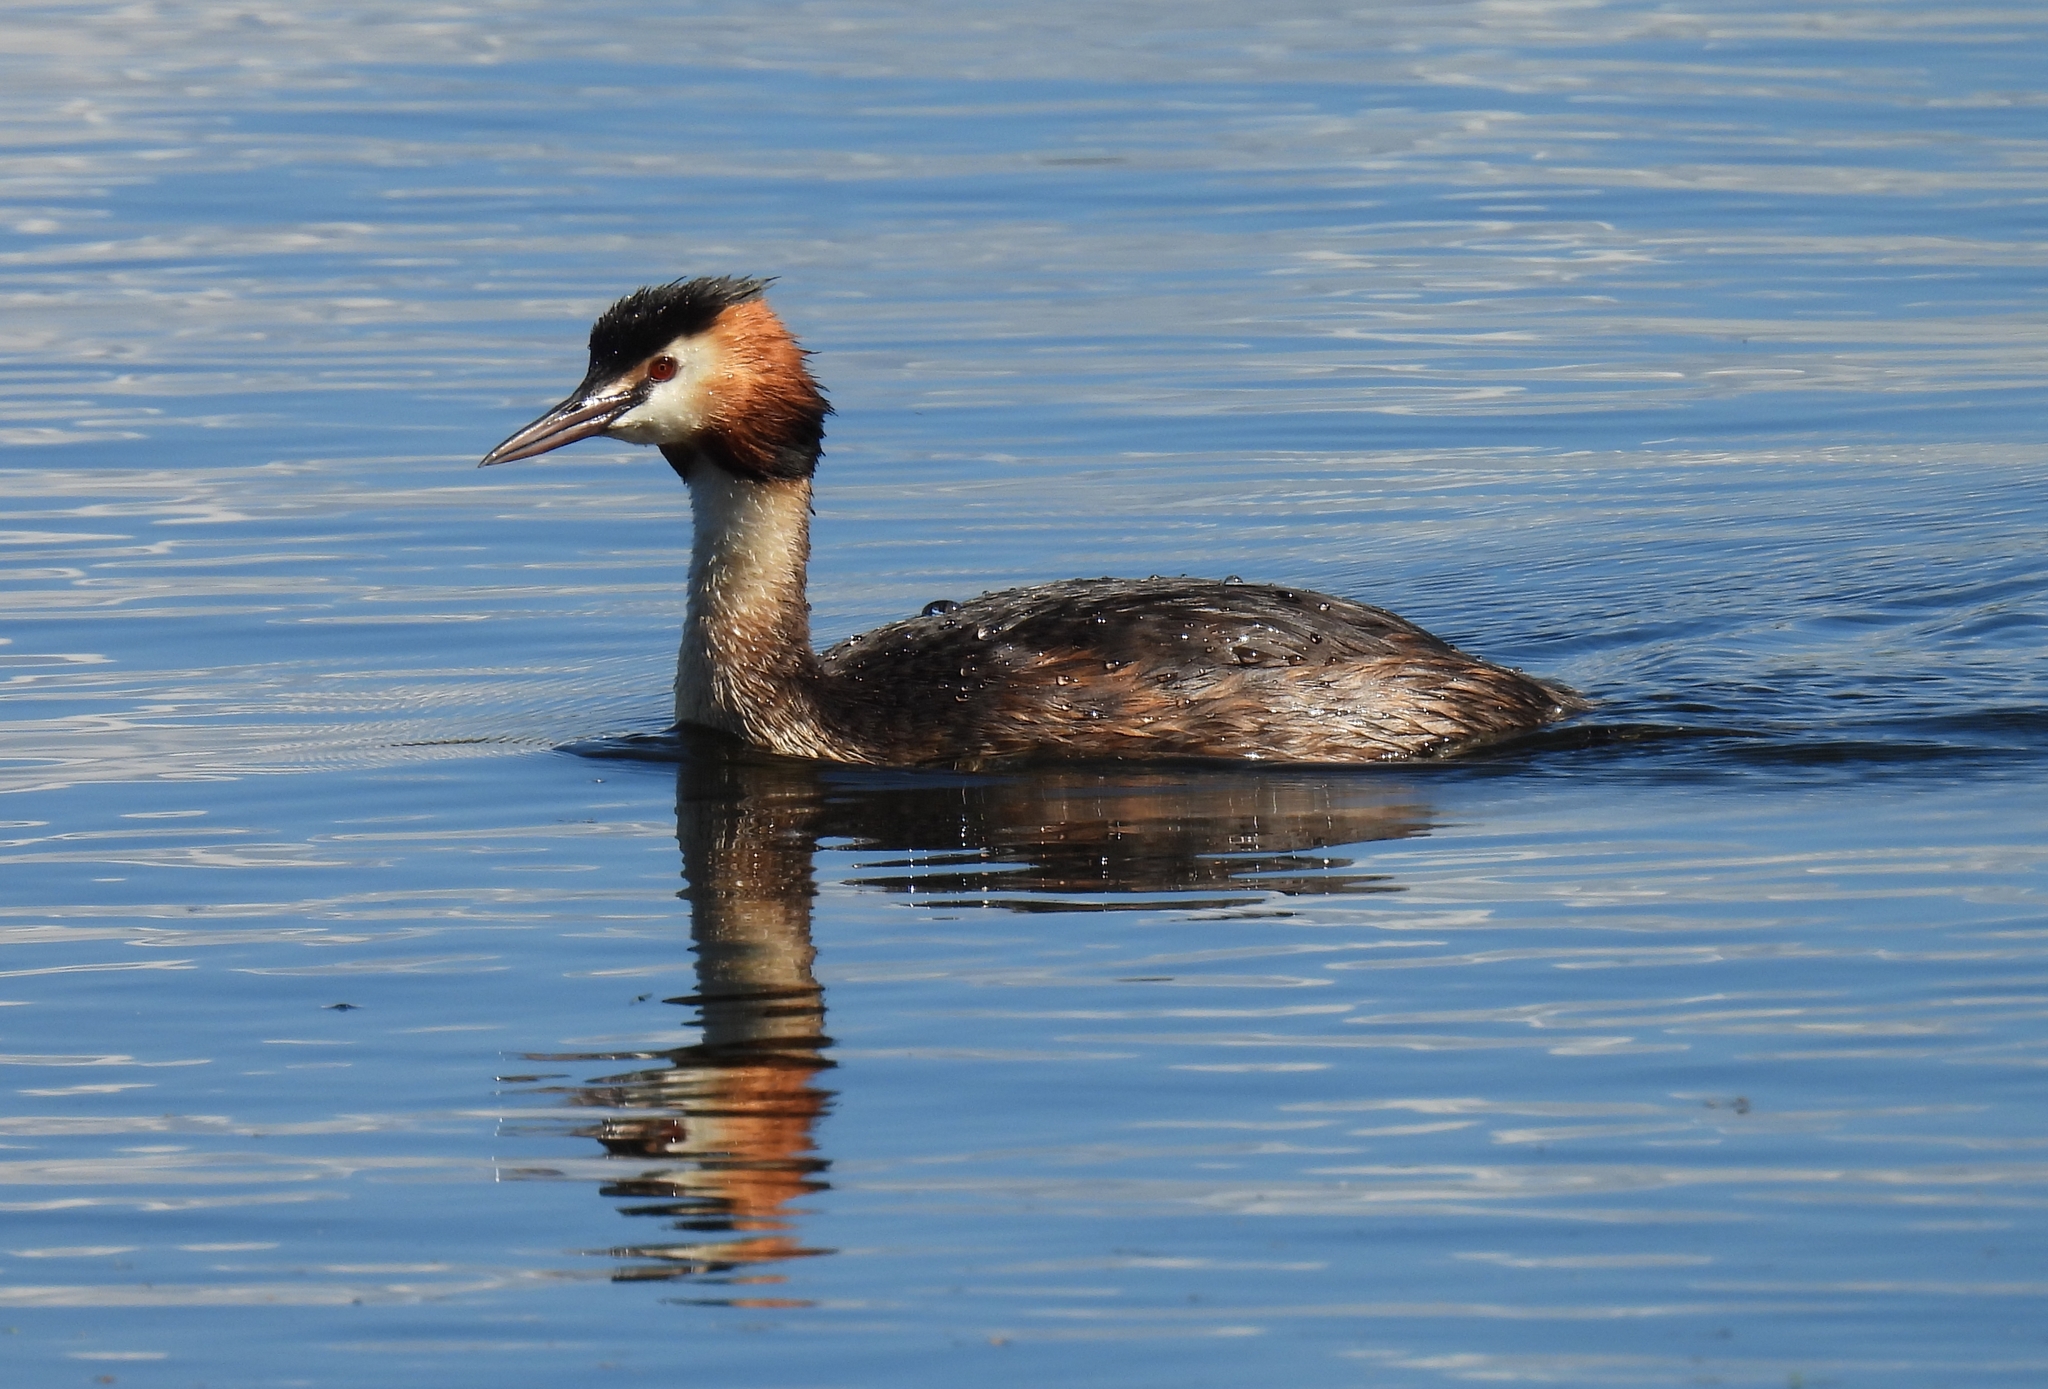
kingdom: Animalia
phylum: Chordata
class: Aves
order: Podicipediformes
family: Podicipedidae
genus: Podiceps
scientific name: Podiceps cristatus
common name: Great crested grebe
